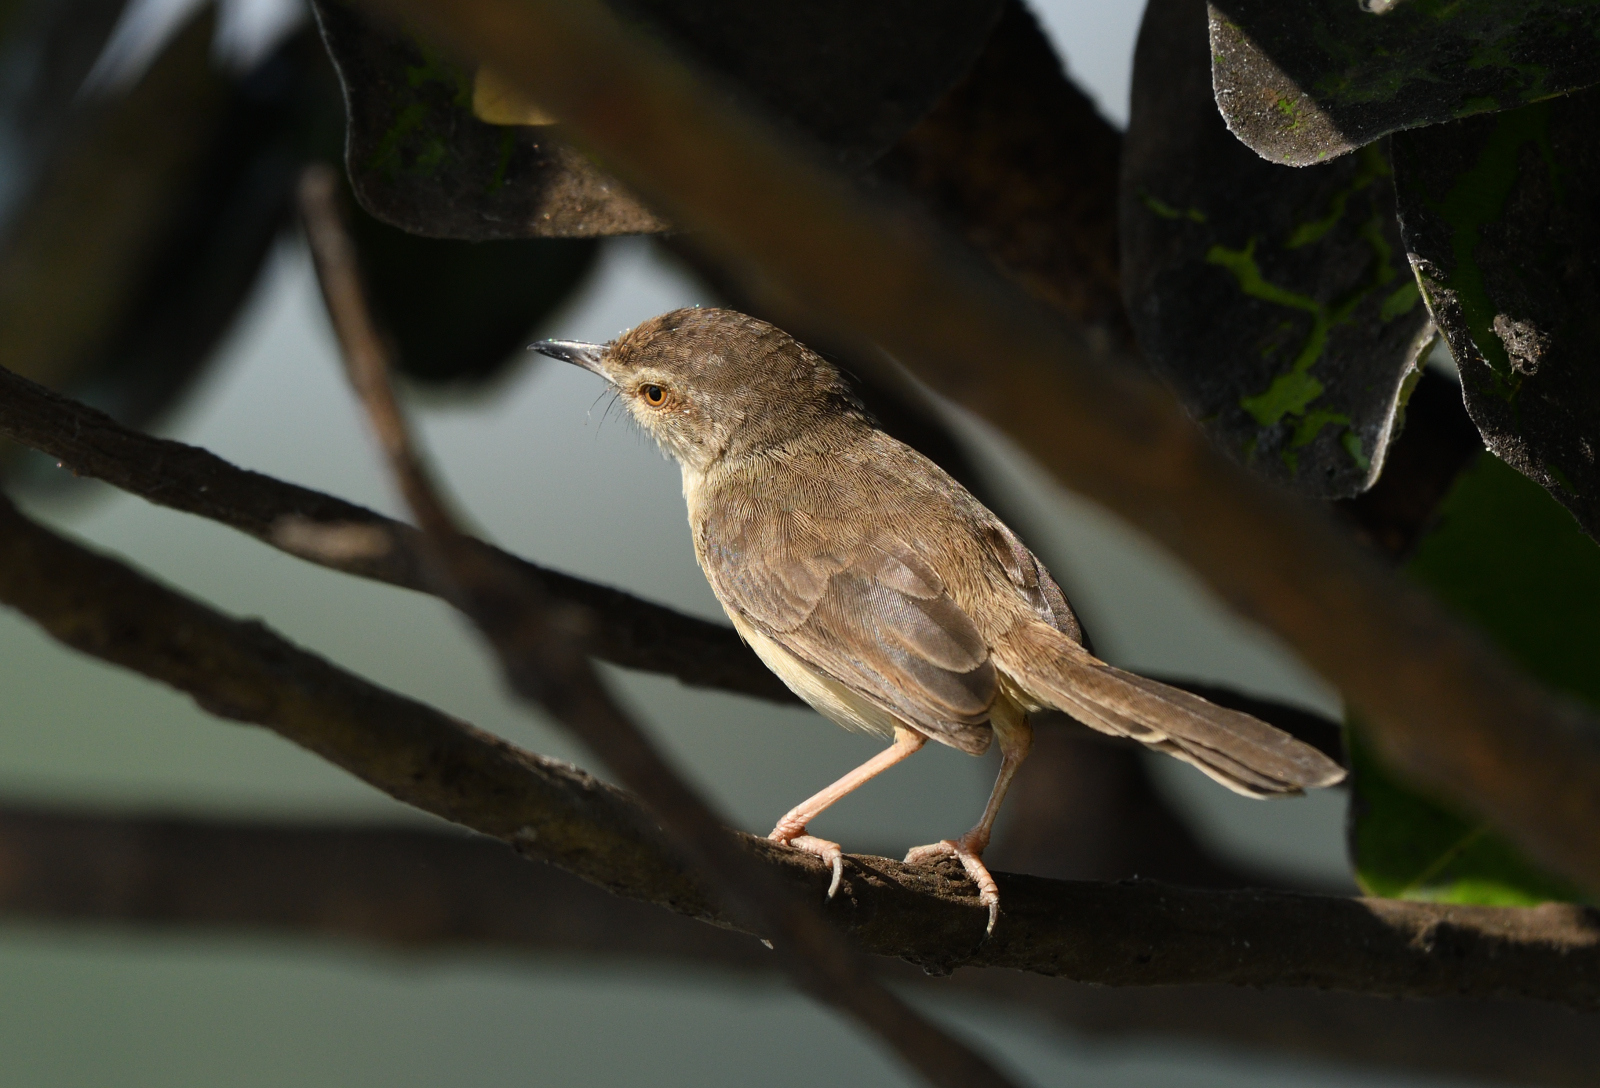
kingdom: Animalia
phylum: Chordata
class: Aves
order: Passeriformes
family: Cisticolidae
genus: Prinia
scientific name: Prinia inornata
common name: Plain prinia
